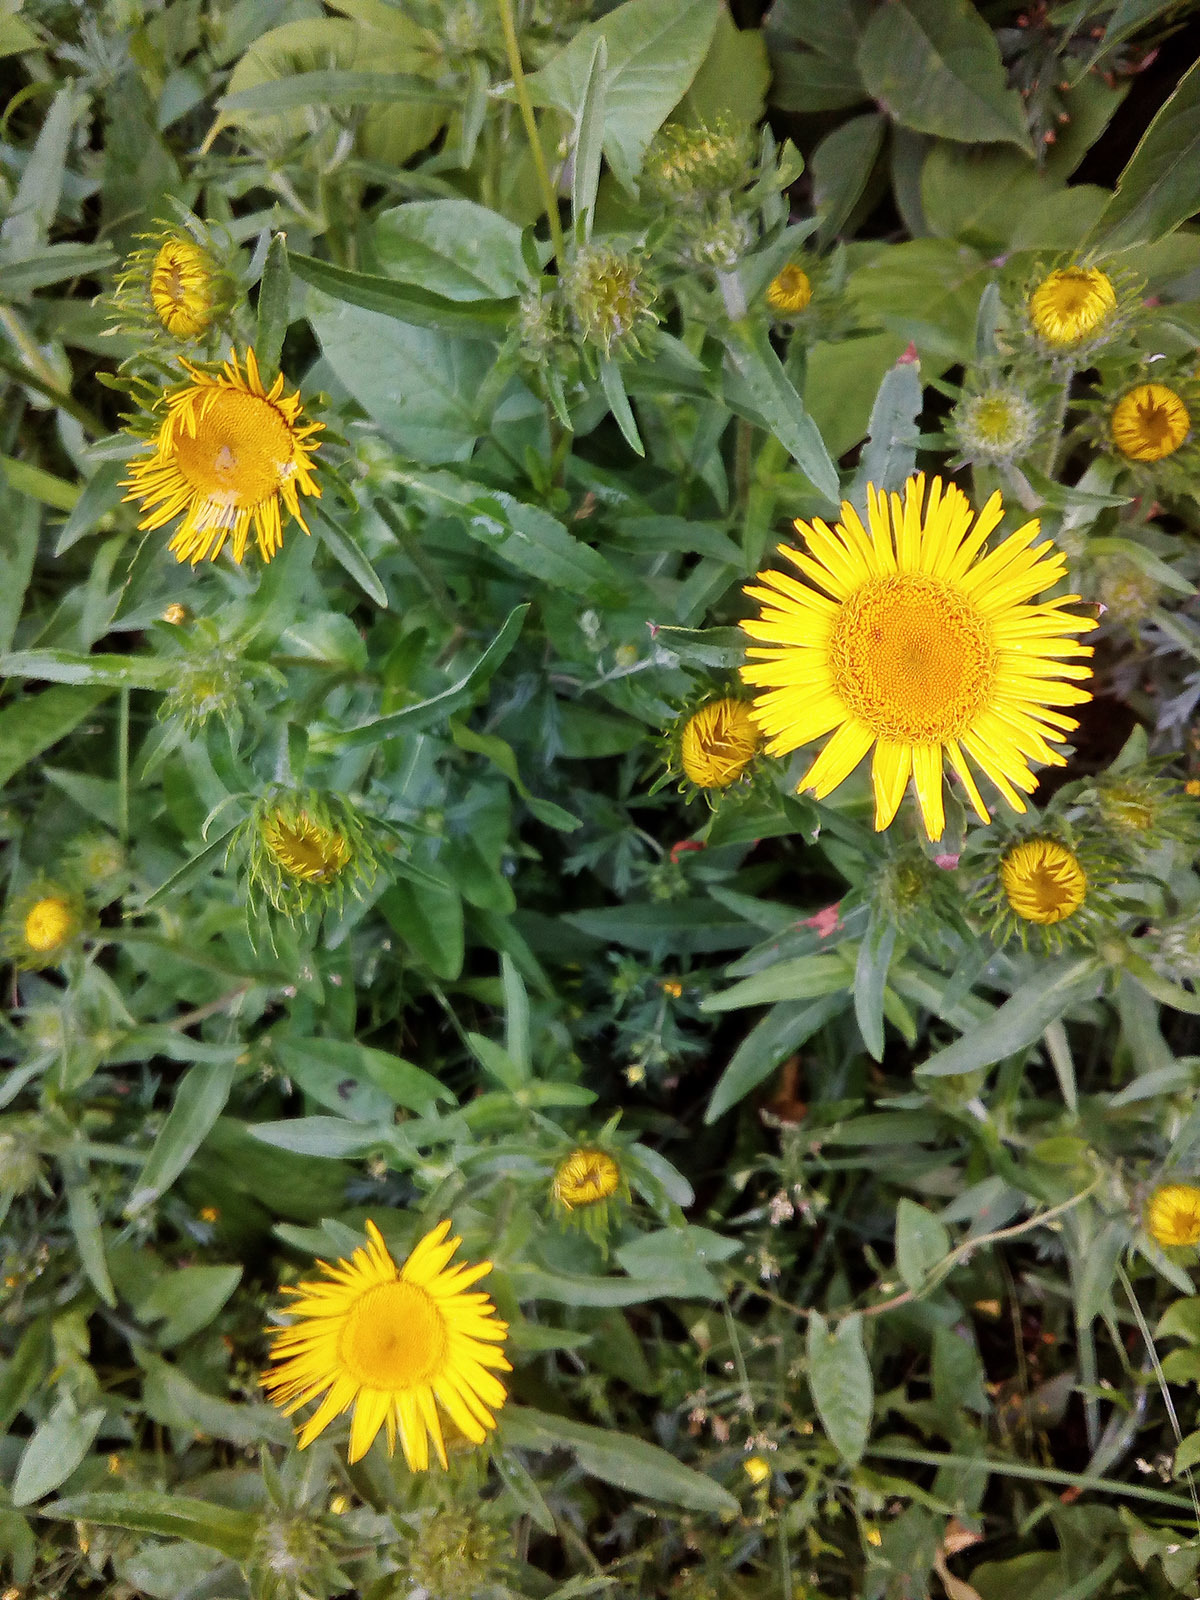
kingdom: Plantae
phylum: Tracheophyta
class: Magnoliopsida
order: Asterales
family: Asteraceae
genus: Pentanema
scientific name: Pentanema britannicum
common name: British elecampane
